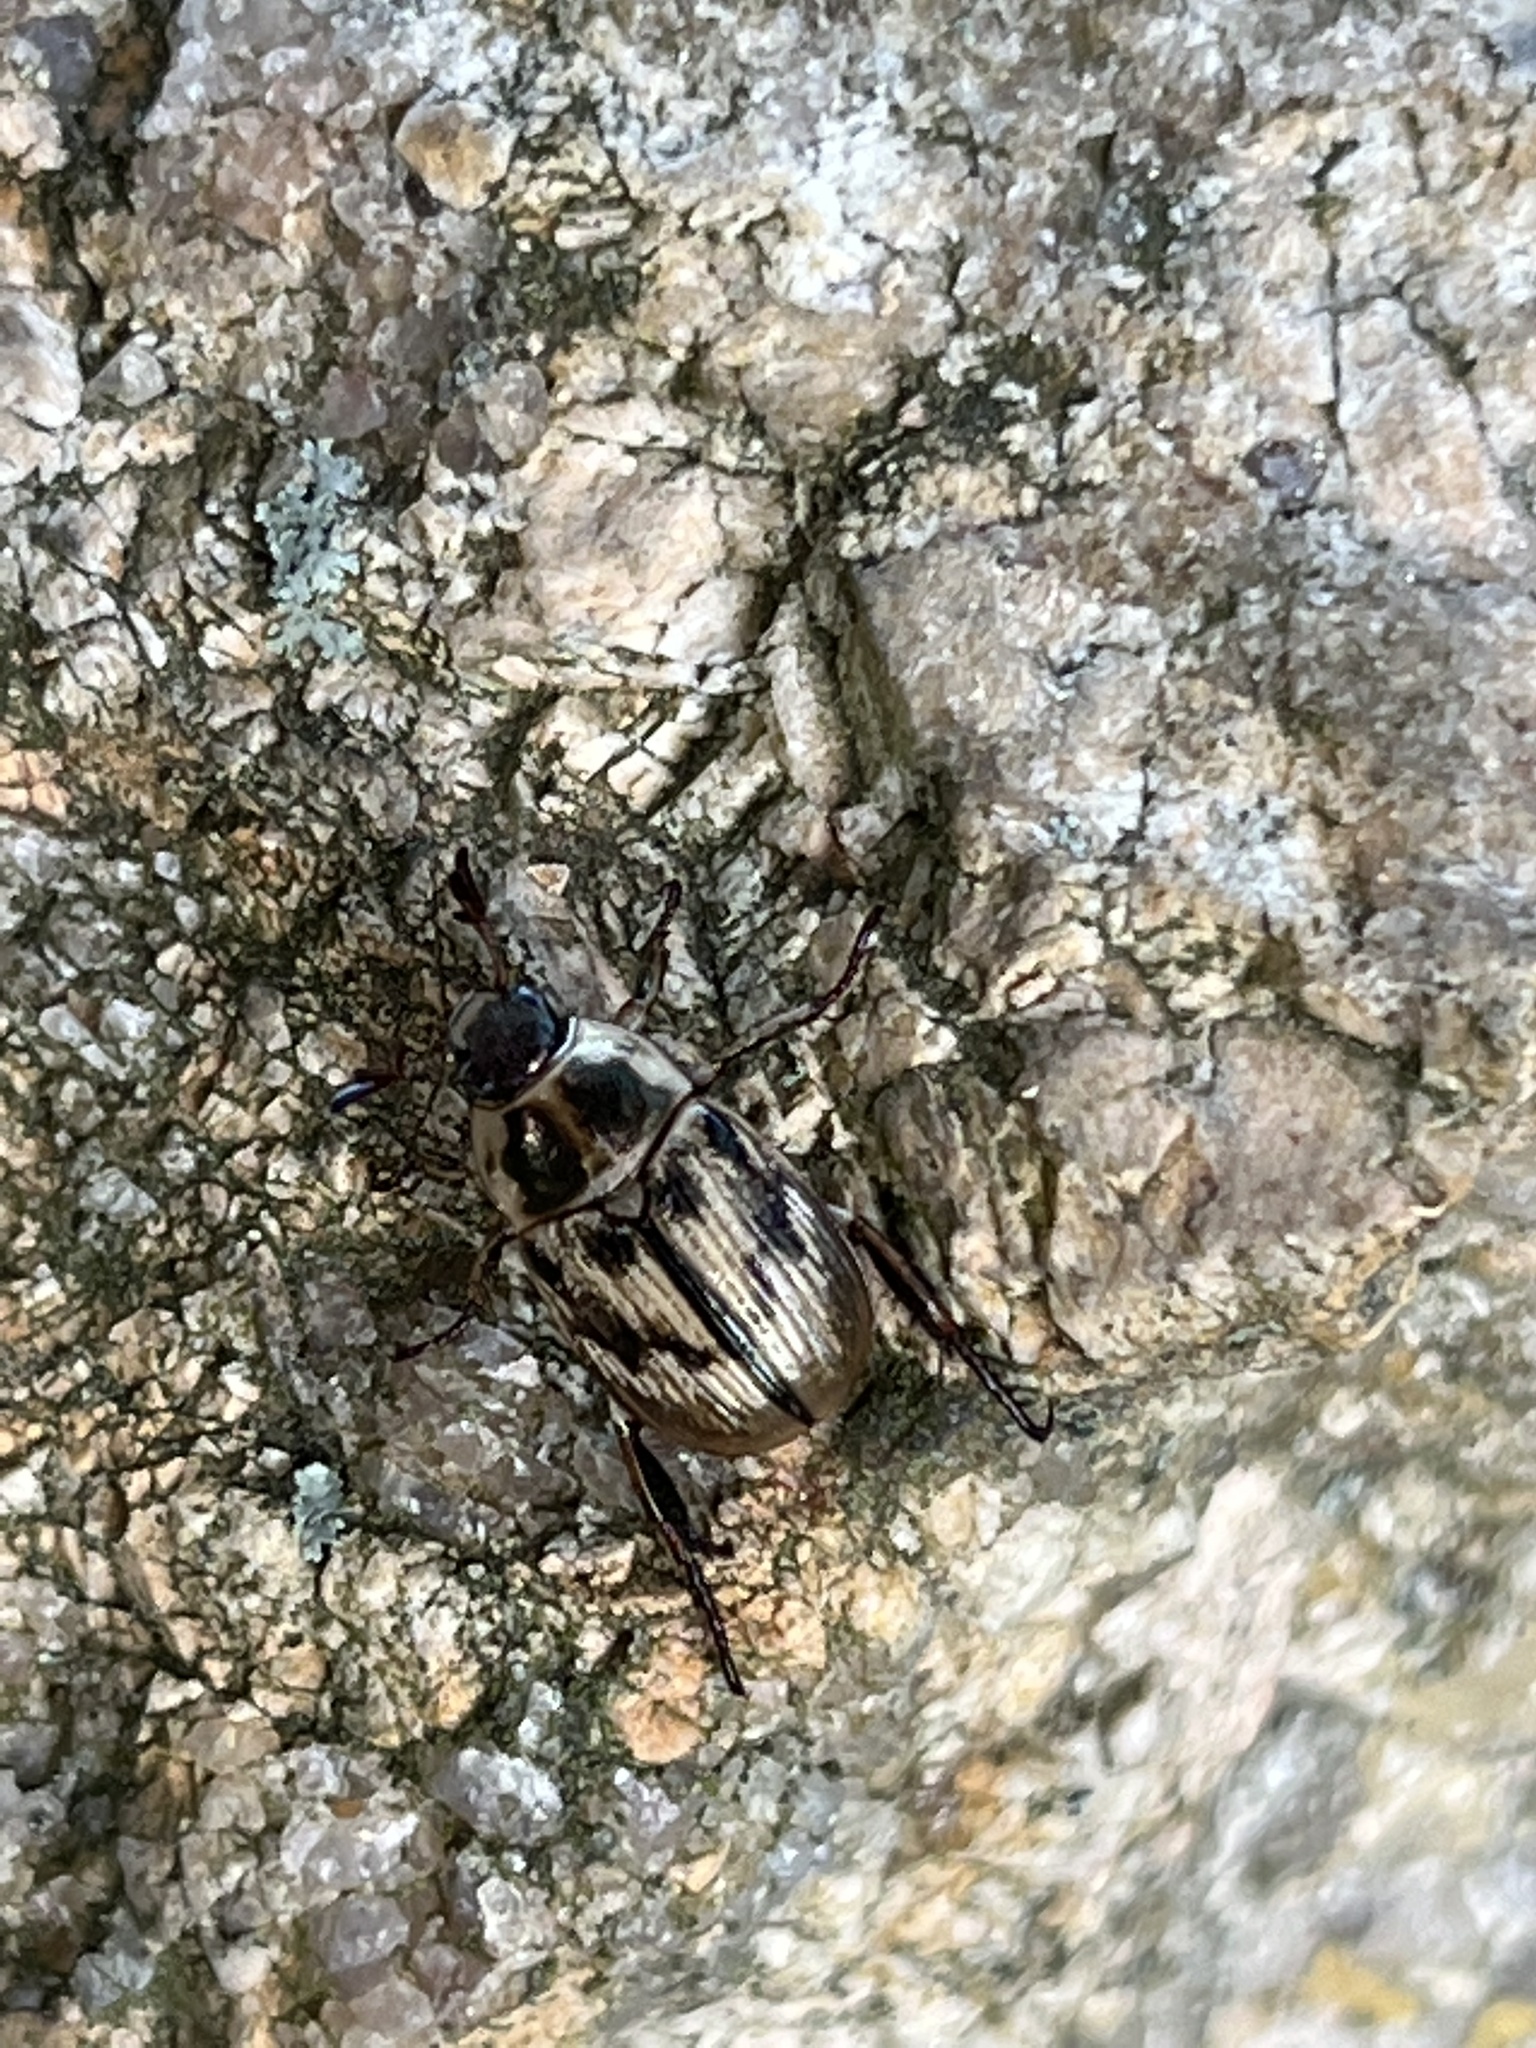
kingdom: Animalia
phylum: Arthropoda
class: Insecta
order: Coleoptera
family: Scarabaeidae
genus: Exomala
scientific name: Exomala orientalis
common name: Oriental beetle
